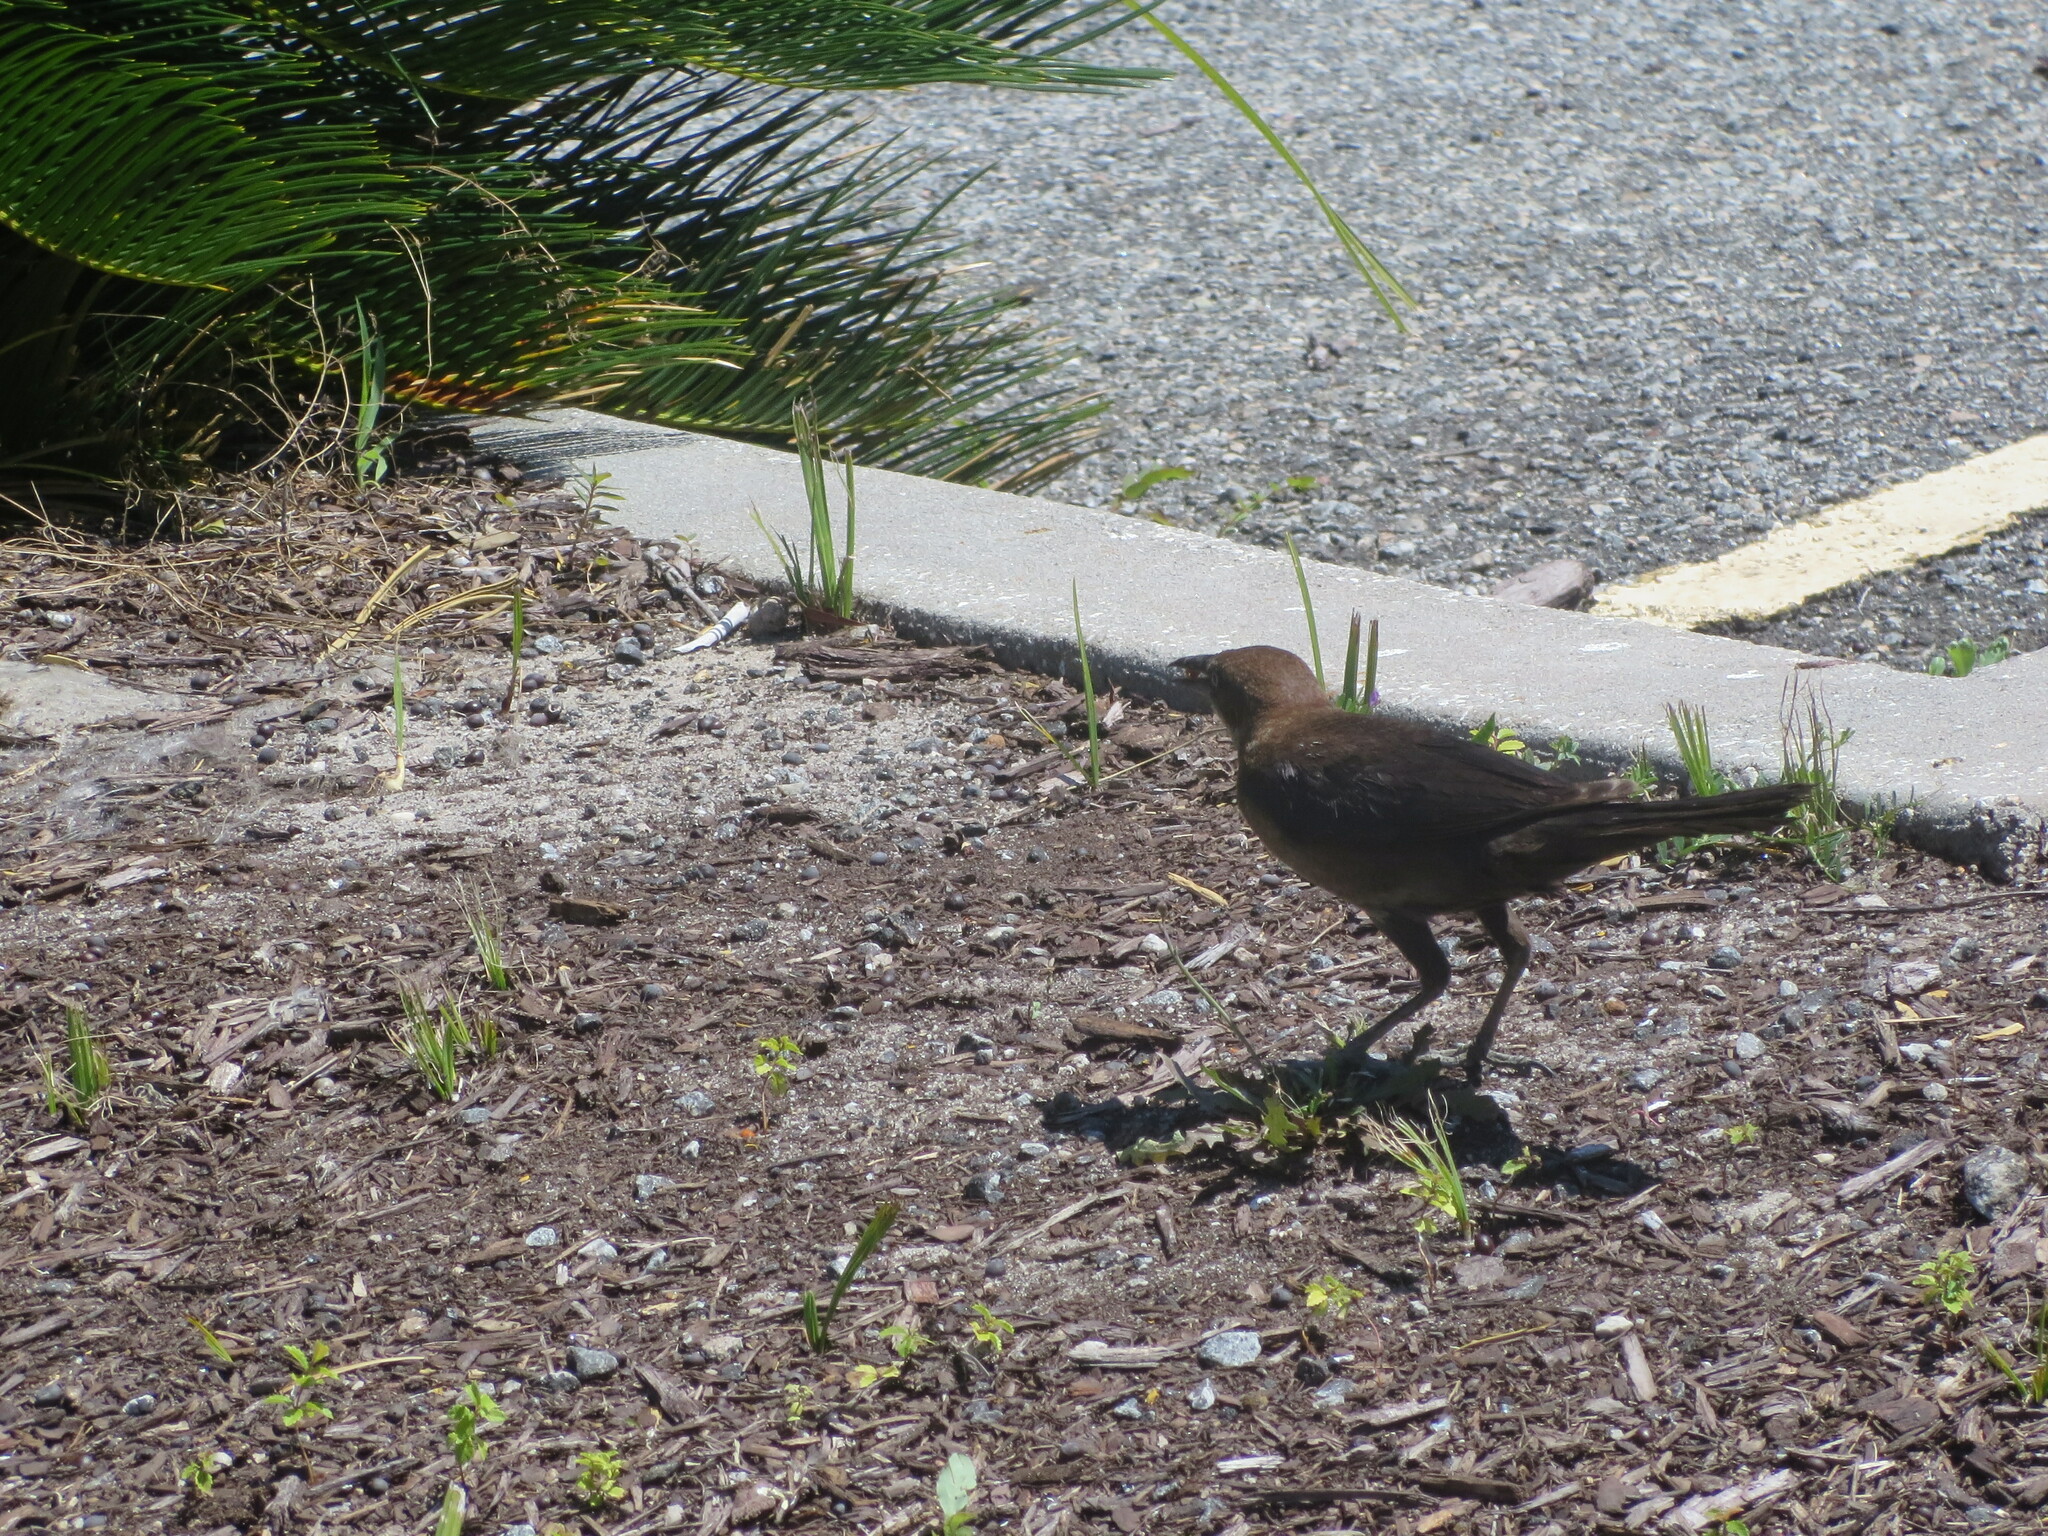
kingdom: Animalia
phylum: Chordata
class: Aves
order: Passeriformes
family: Icteridae
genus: Quiscalus
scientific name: Quiscalus major
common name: Boat-tailed grackle
